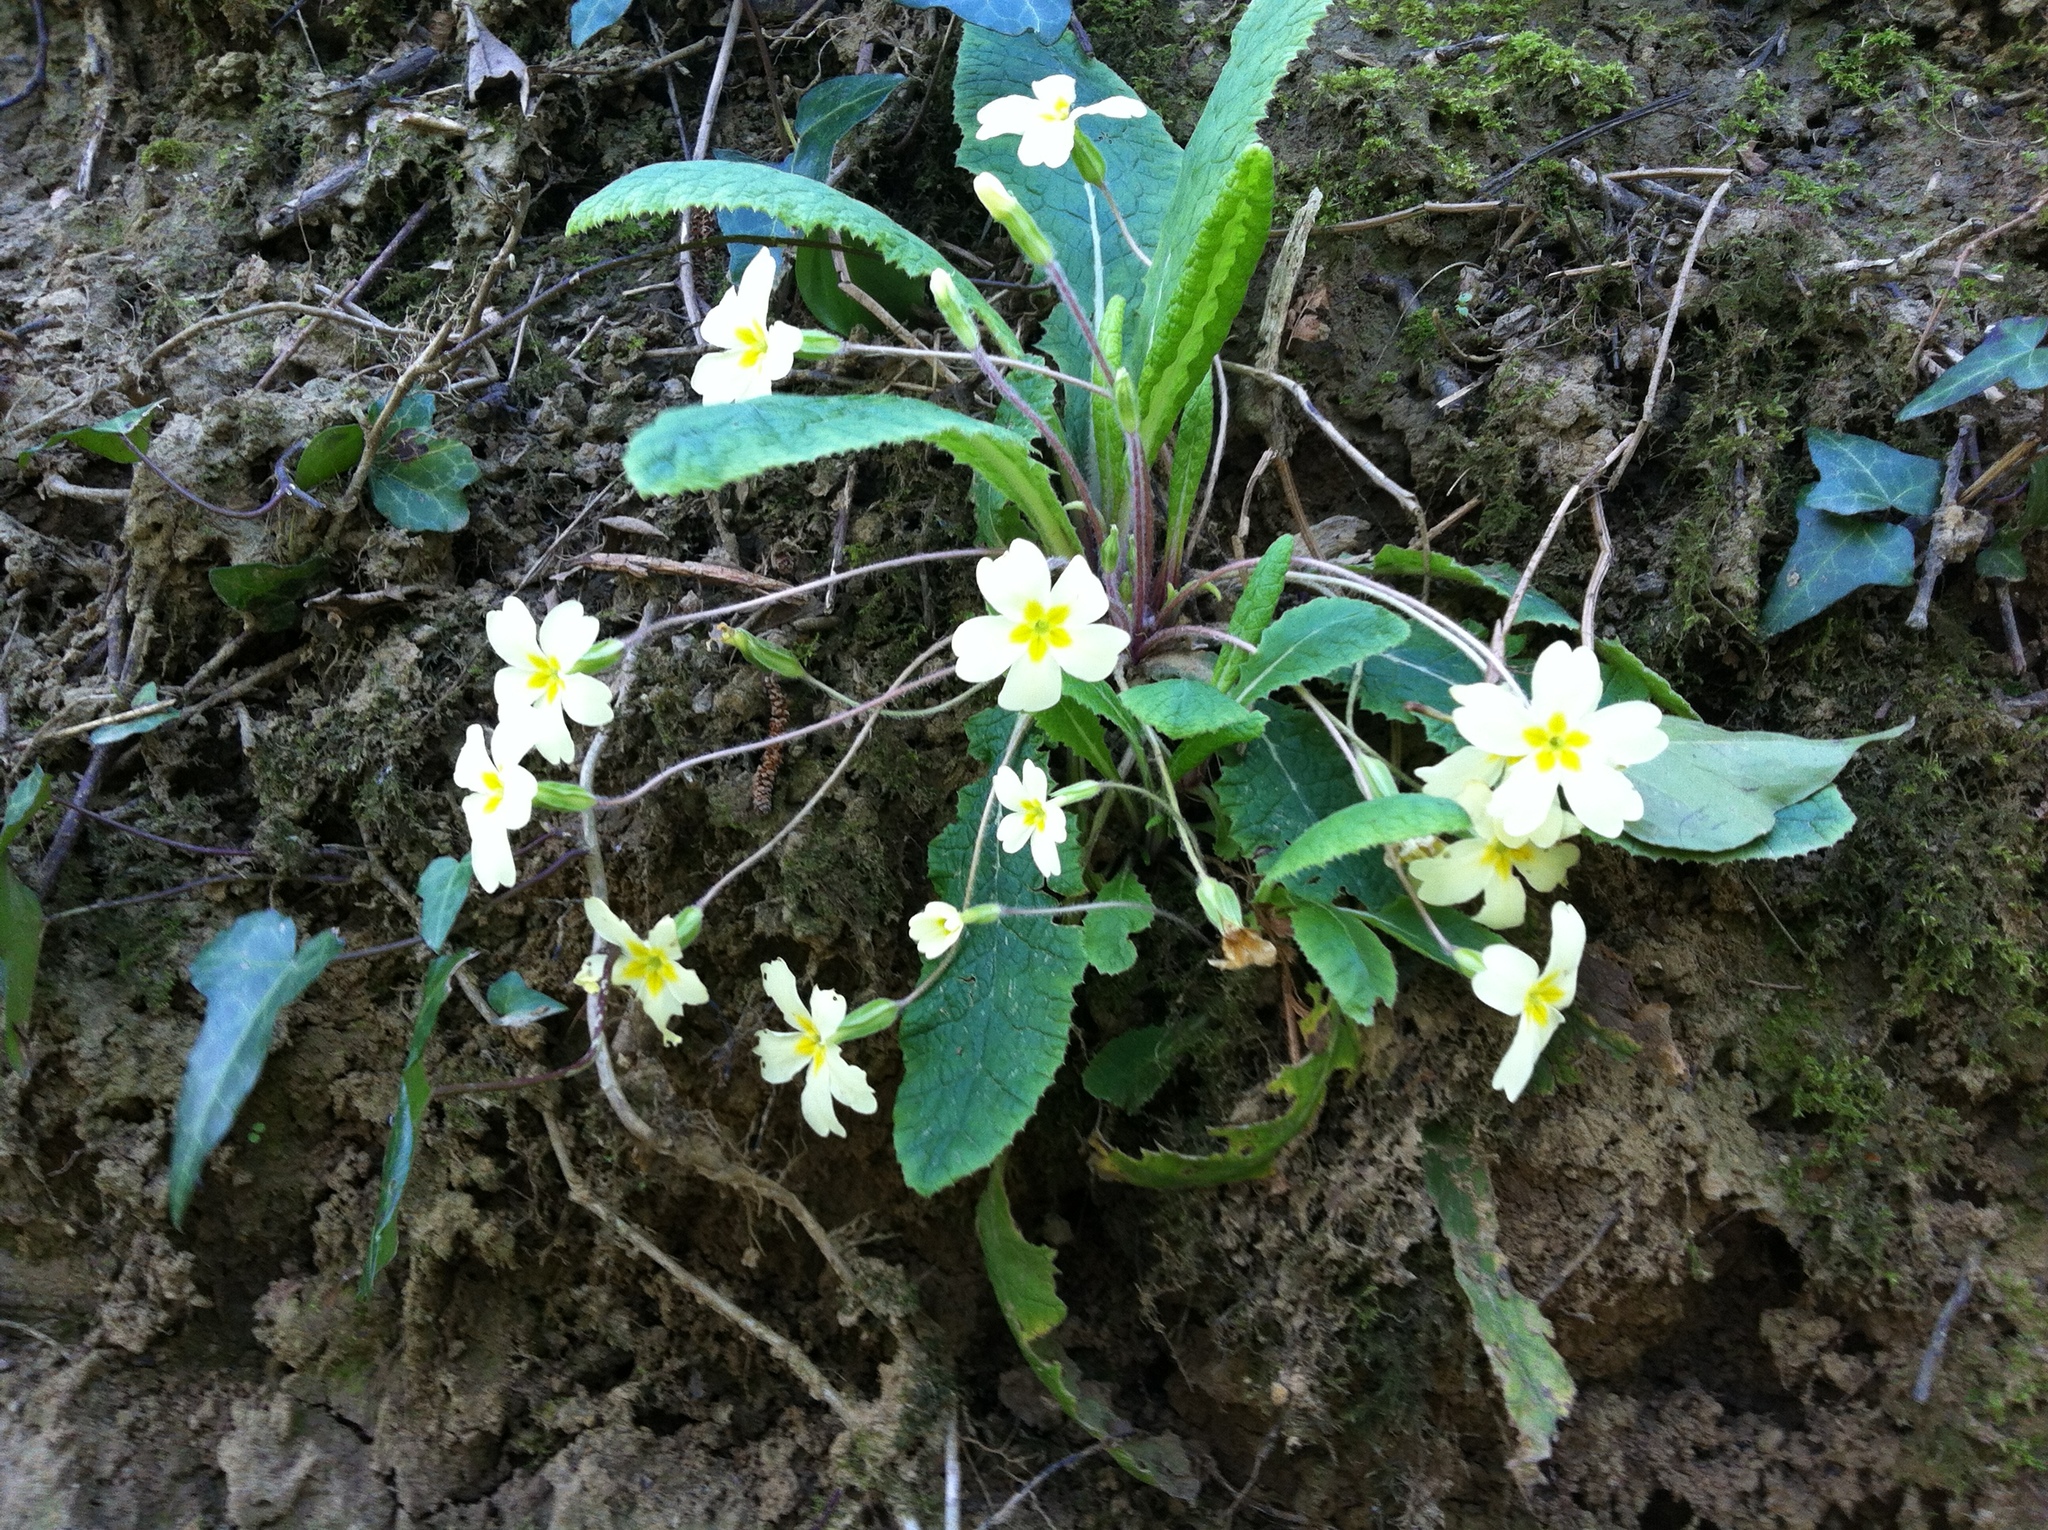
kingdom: Plantae
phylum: Tracheophyta
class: Magnoliopsida
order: Ericales
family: Primulaceae
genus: Primula
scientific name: Primula vulgaris
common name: Primrose
